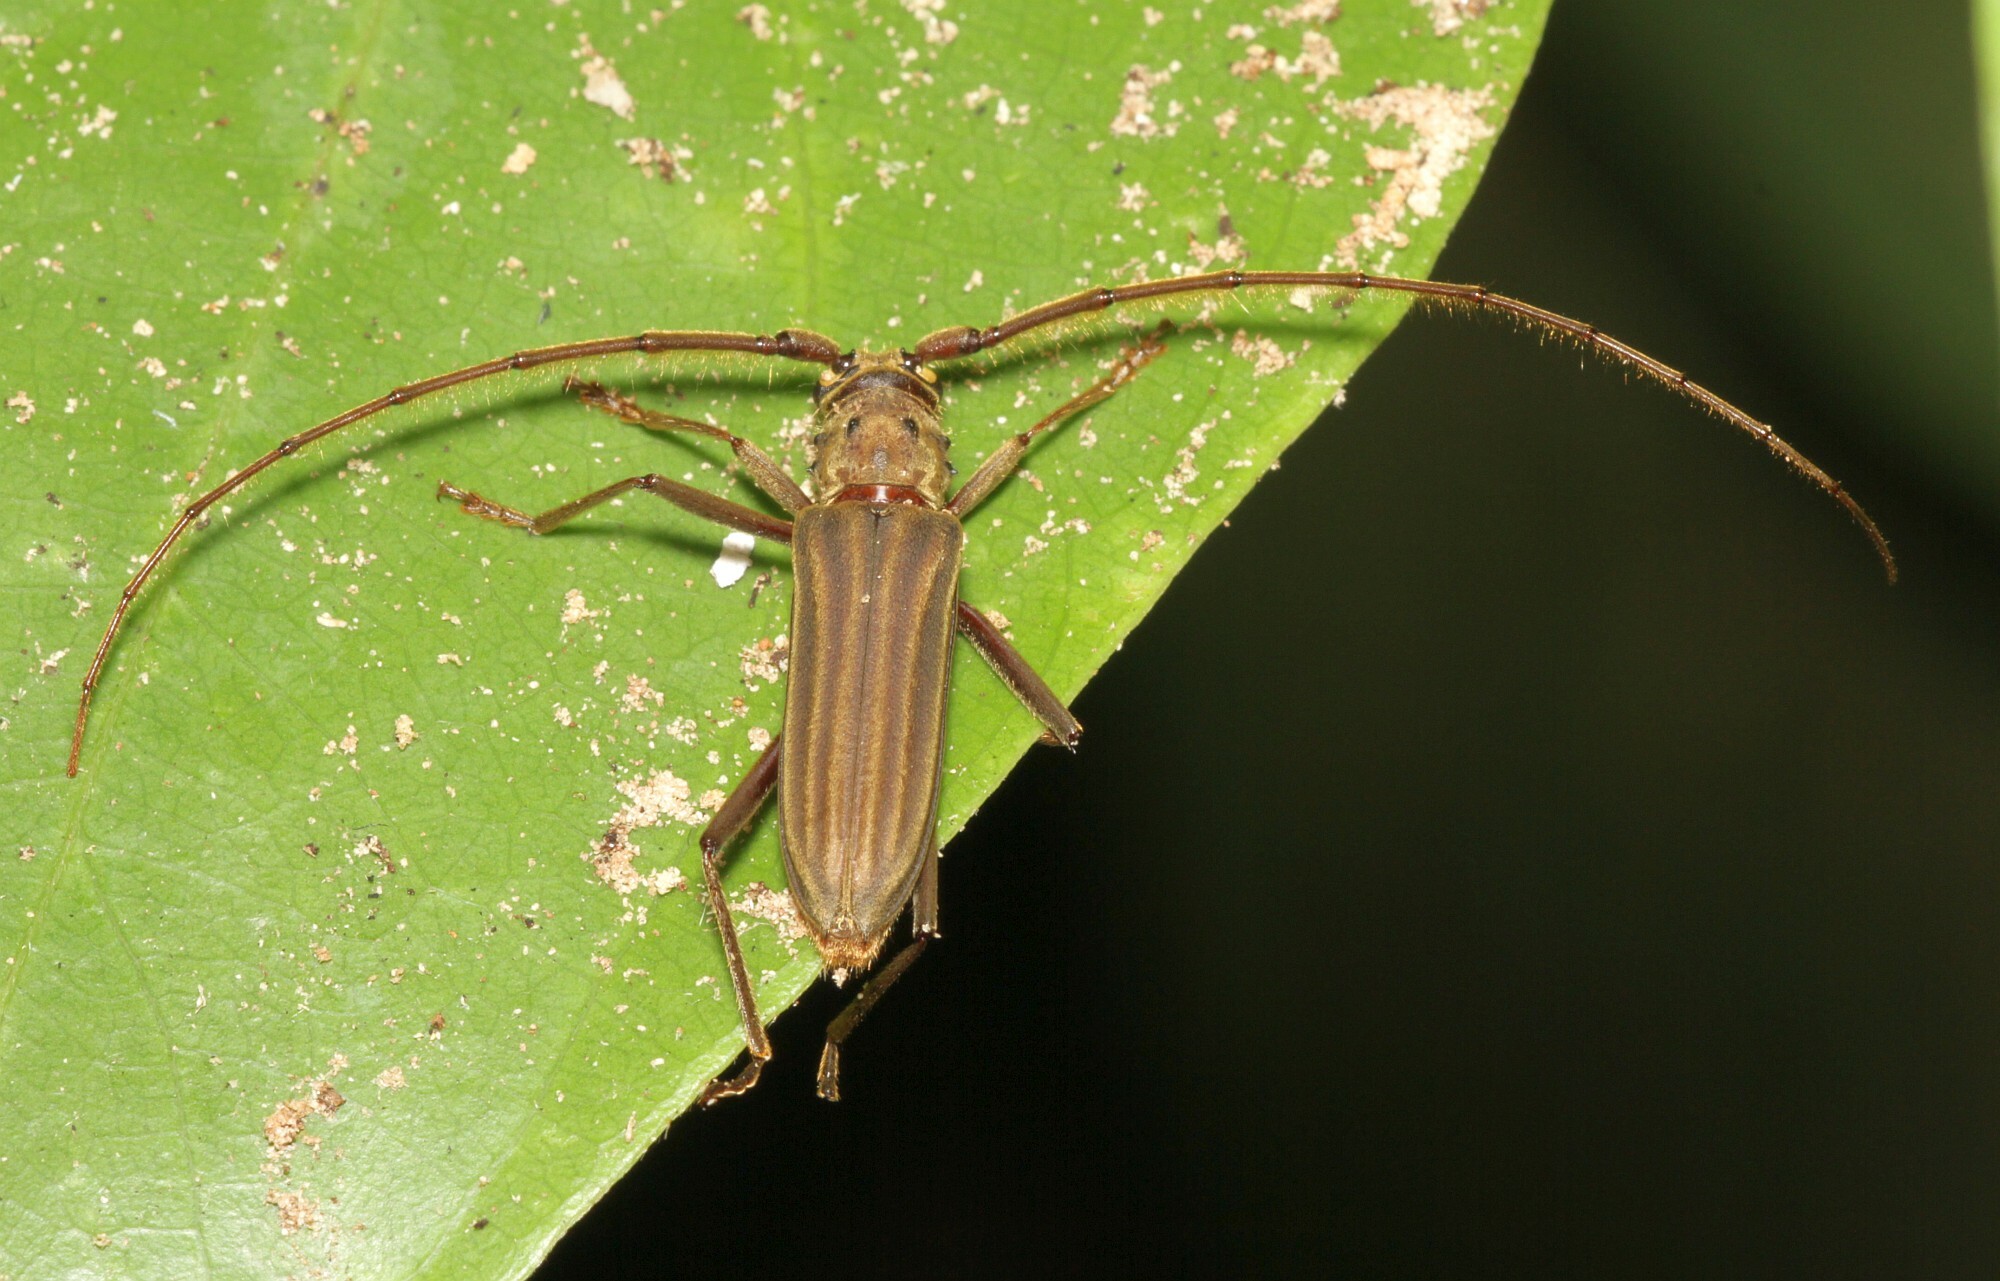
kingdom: Animalia
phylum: Arthropoda
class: Insecta
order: Coleoptera
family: Cerambycidae
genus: Opades
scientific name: Opades costipennis
